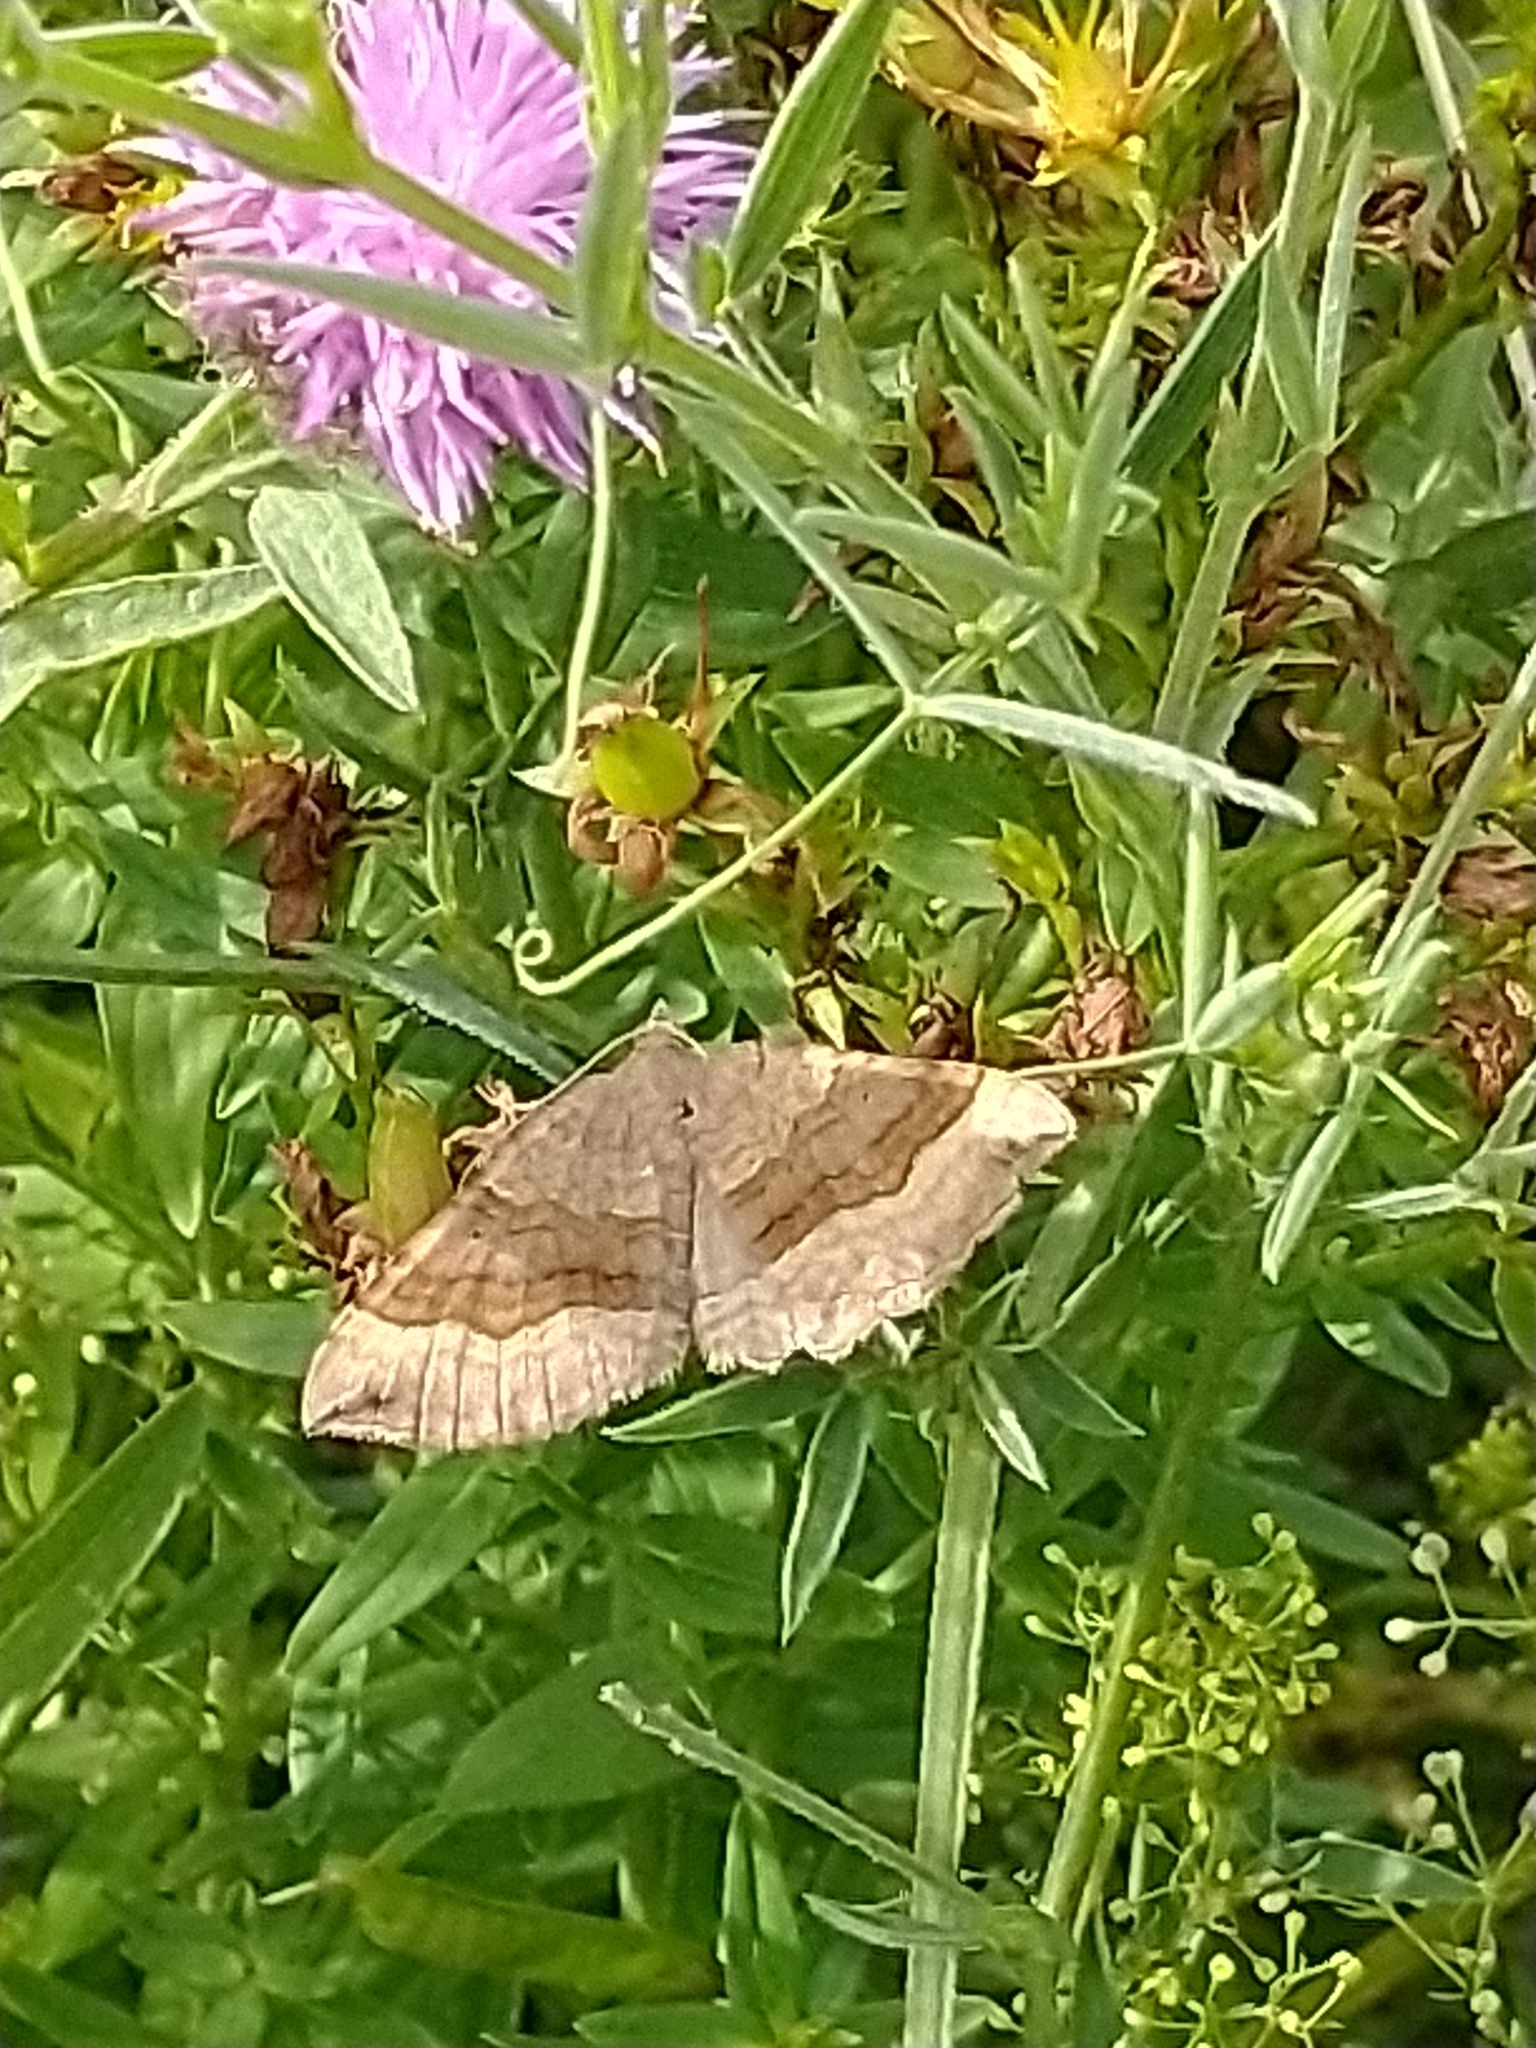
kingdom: Animalia
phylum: Arthropoda
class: Insecta
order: Lepidoptera
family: Geometridae
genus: Scotopteryx
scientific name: Scotopteryx chenopodiata
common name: Shaded broad-bar
